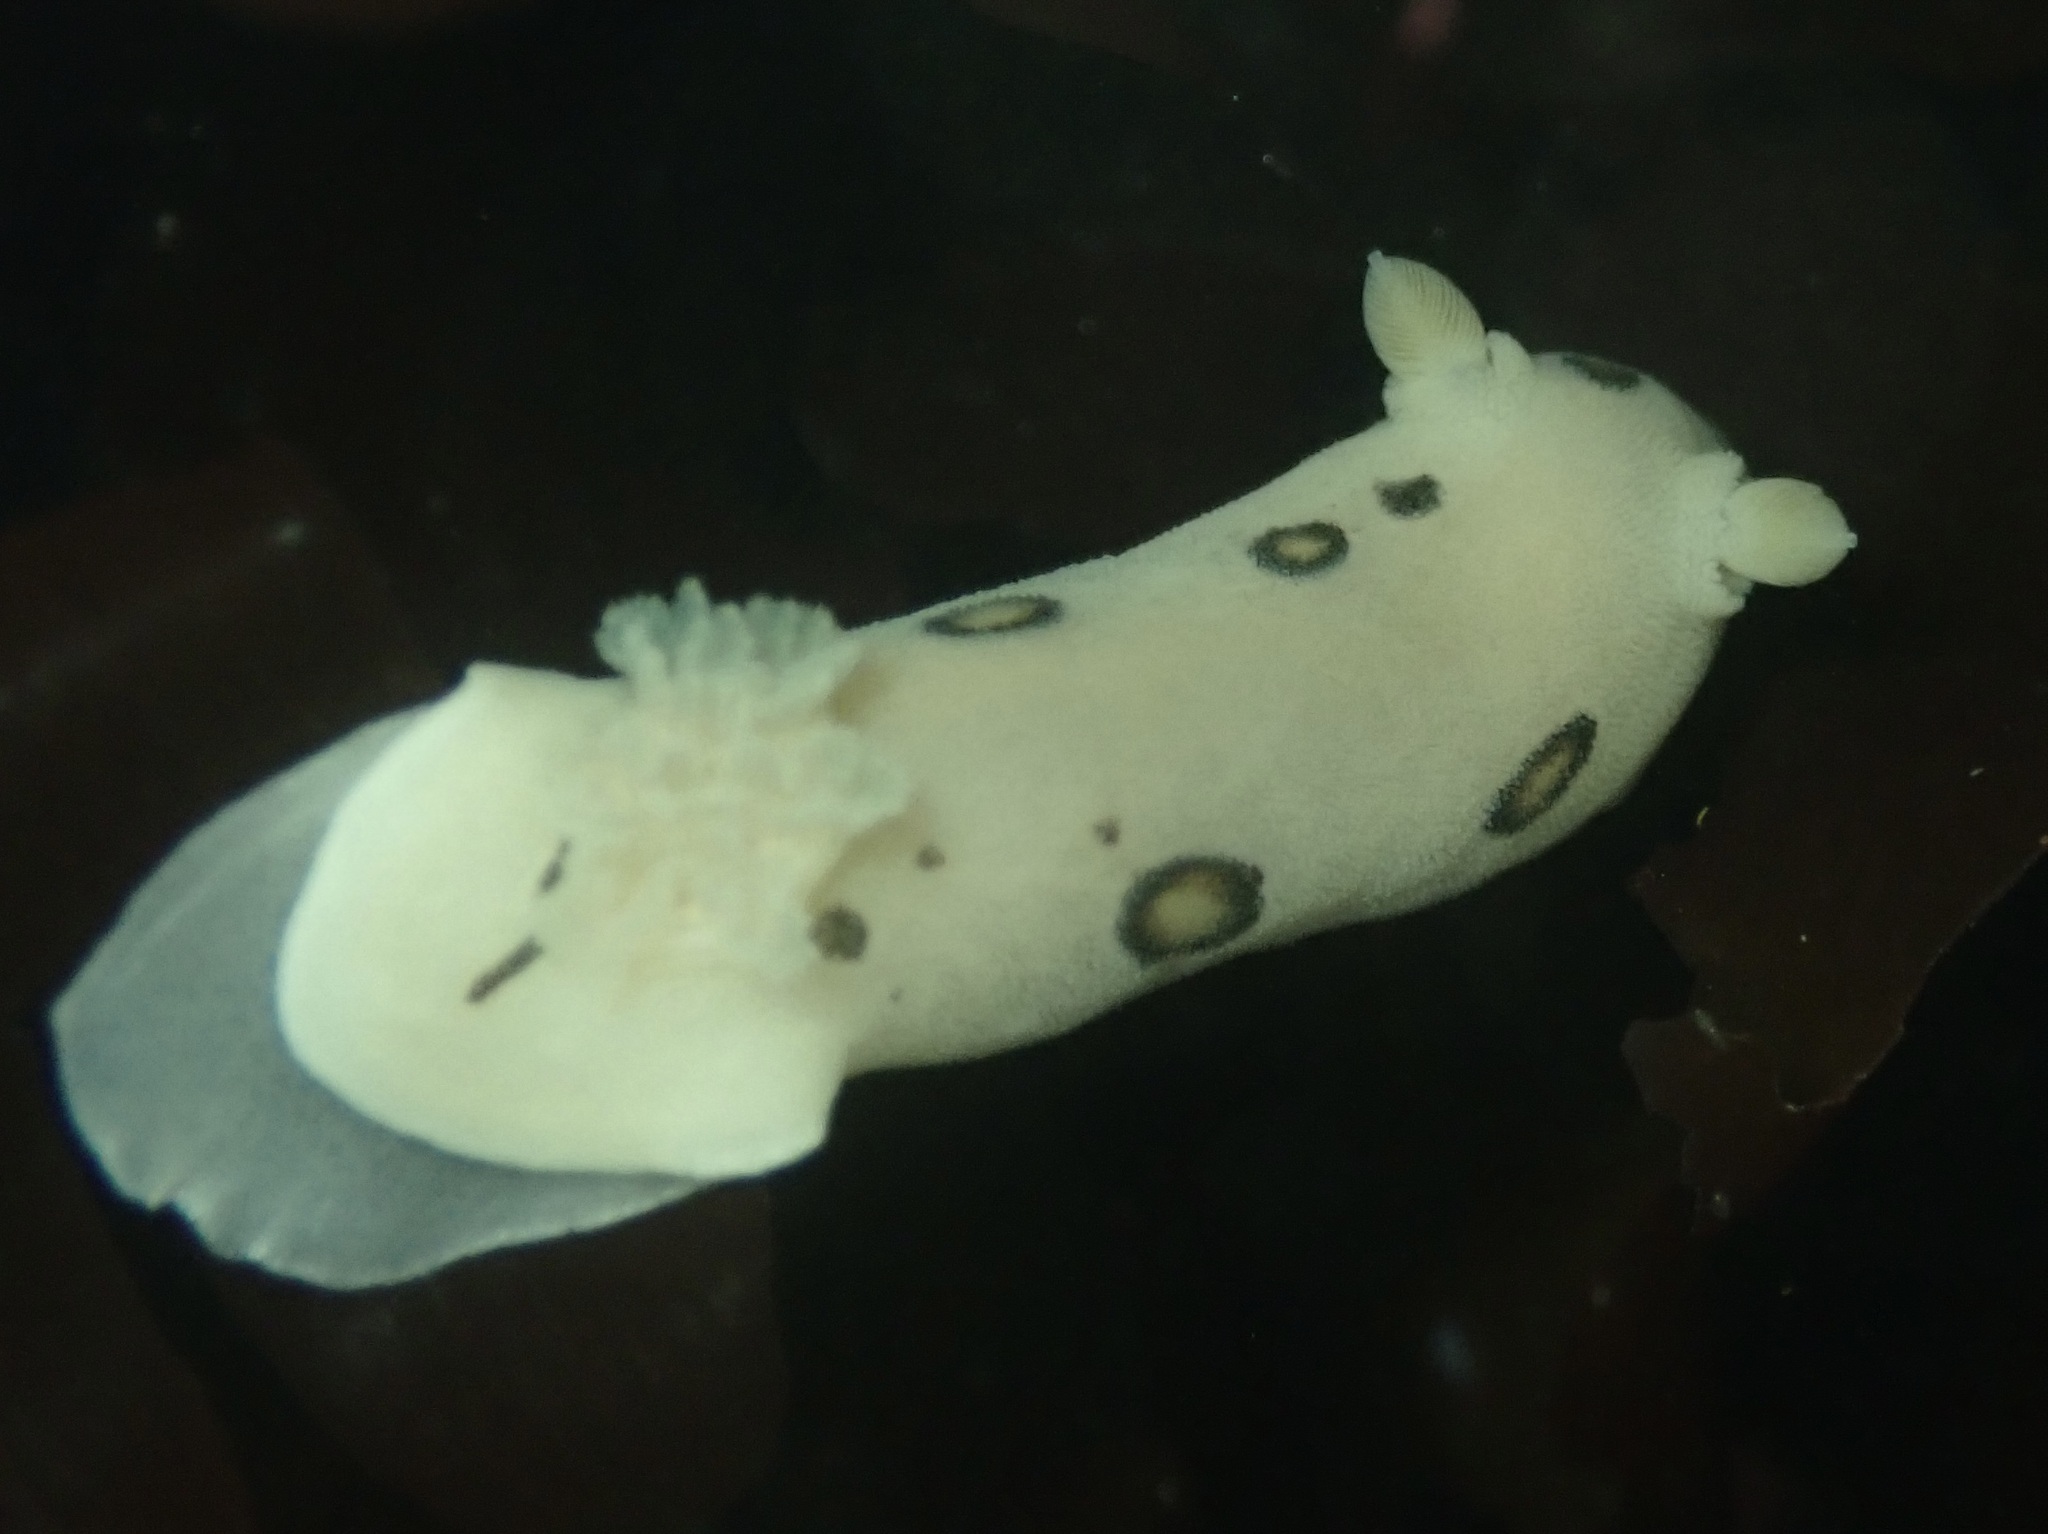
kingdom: Animalia
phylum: Mollusca
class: Gastropoda
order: Nudibranchia
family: Discodorididae
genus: Diaulula
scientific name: Diaulula sandiegensis
